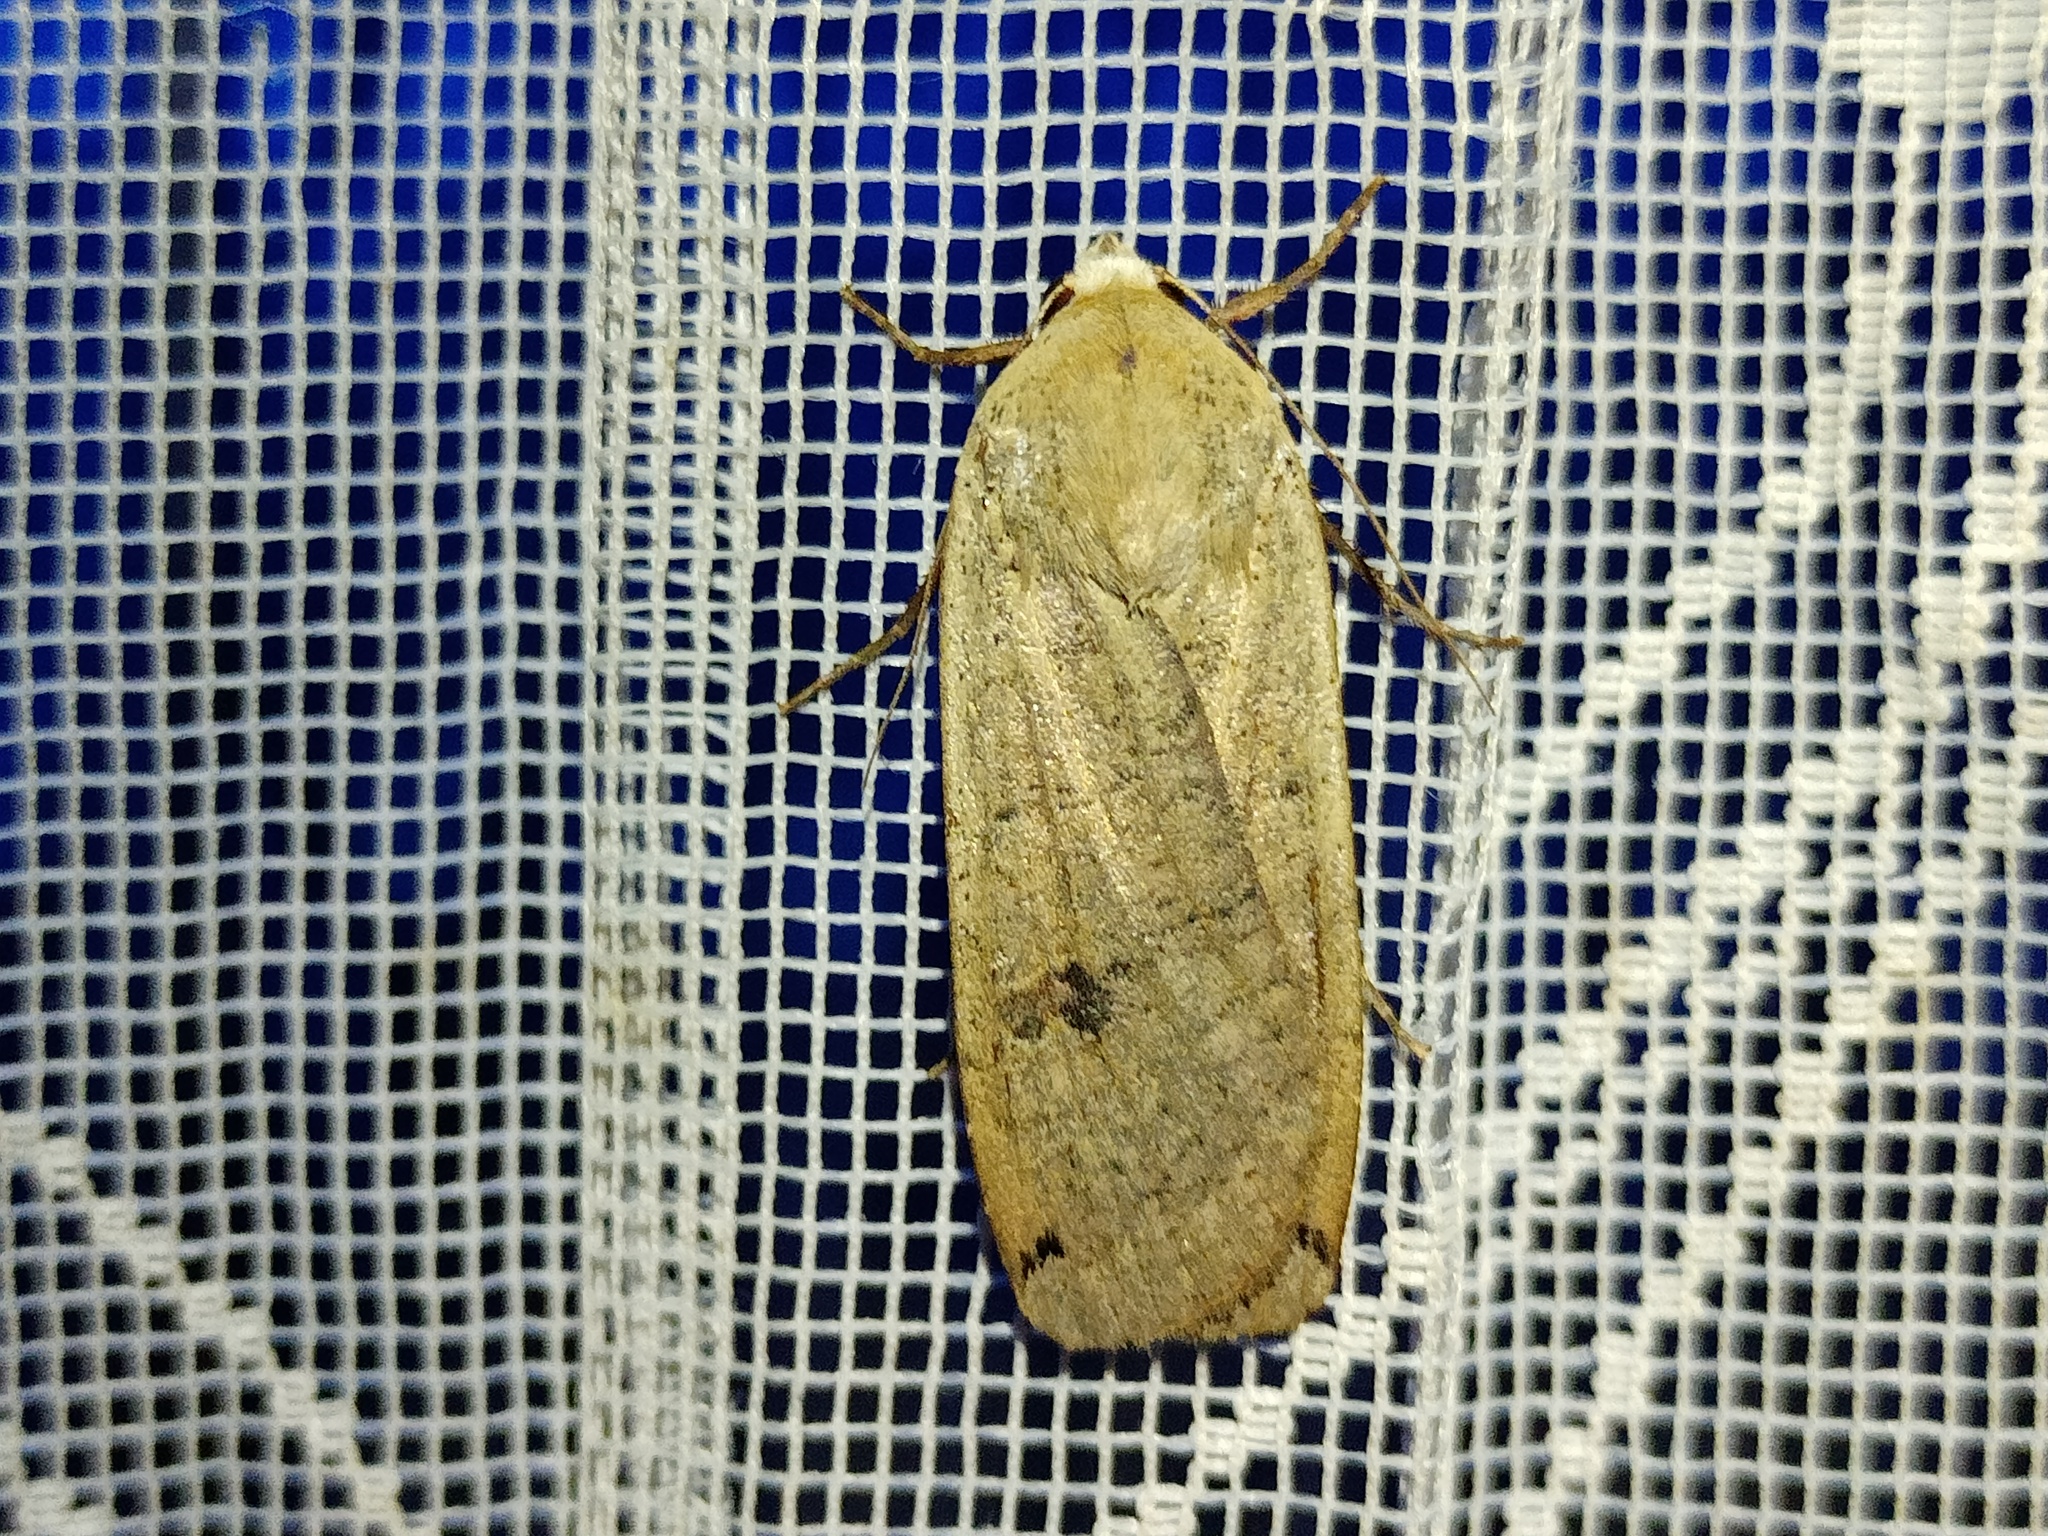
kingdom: Animalia
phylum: Arthropoda
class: Insecta
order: Lepidoptera
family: Noctuidae
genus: Noctua
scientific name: Noctua pronuba
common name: Large yellow underwing
